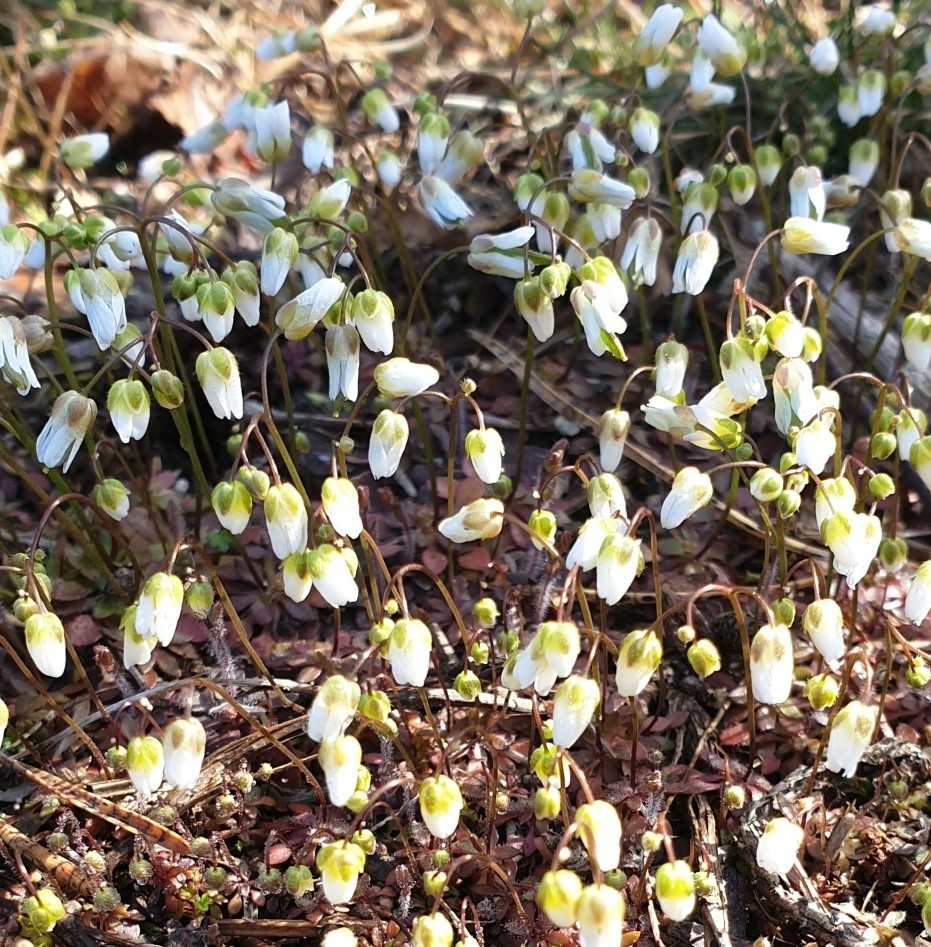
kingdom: Plantae
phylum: Tracheophyta
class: Magnoliopsida
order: Brassicales
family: Brassicaceae
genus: Draba
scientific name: Draba verna
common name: Spring draba
